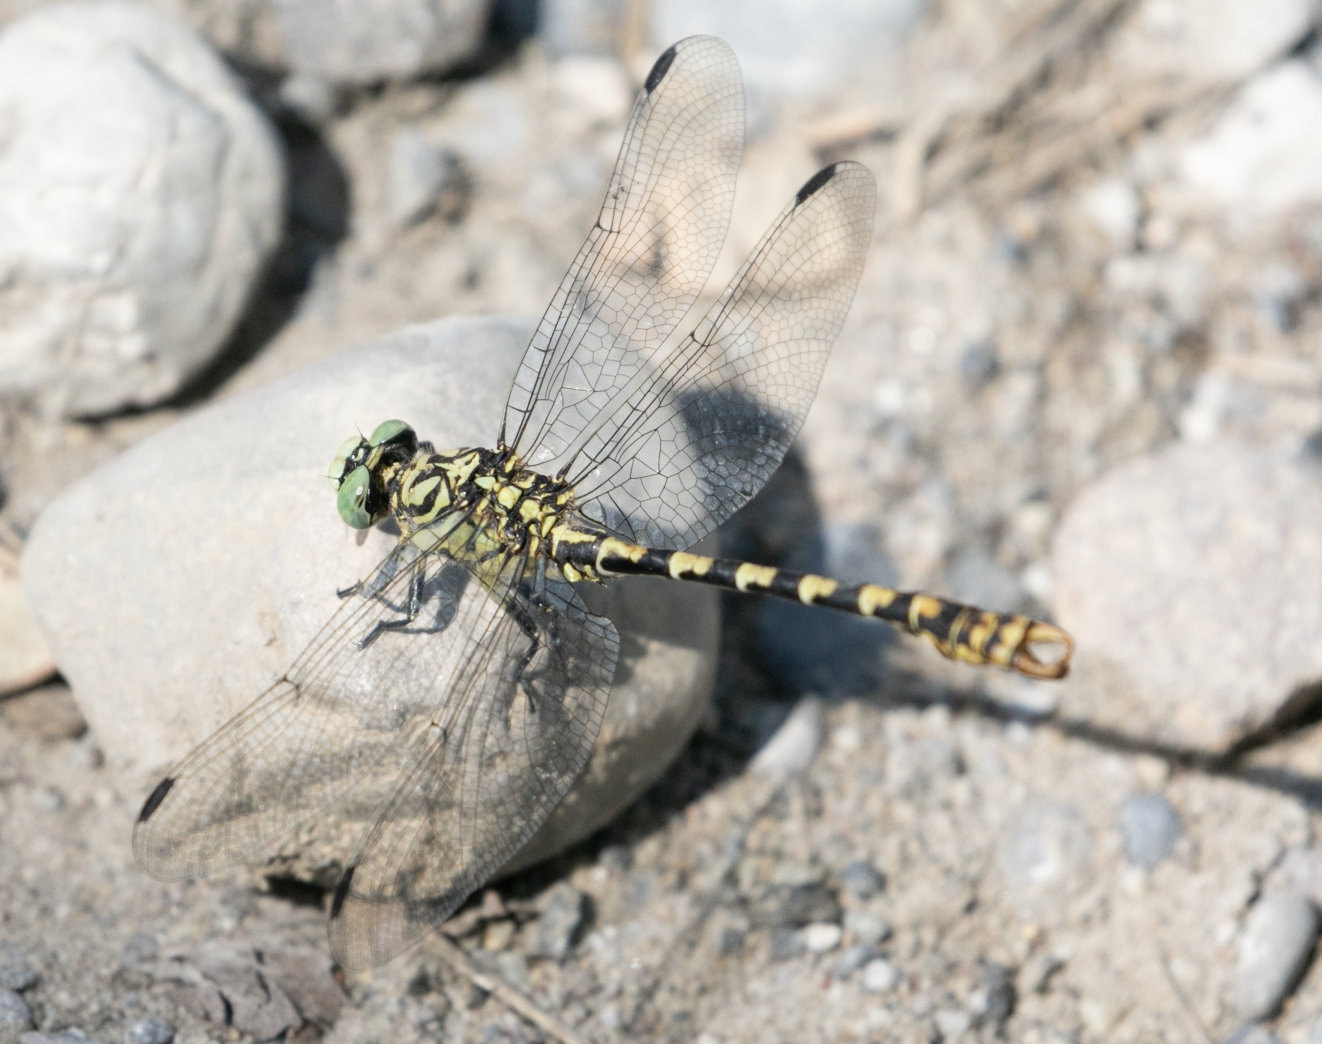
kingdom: Animalia
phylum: Arthropoda
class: Insecta
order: Odonata
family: Gomphidae
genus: Onychogomphus
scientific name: Onychogomphus forcipatus
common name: Small pincertail
